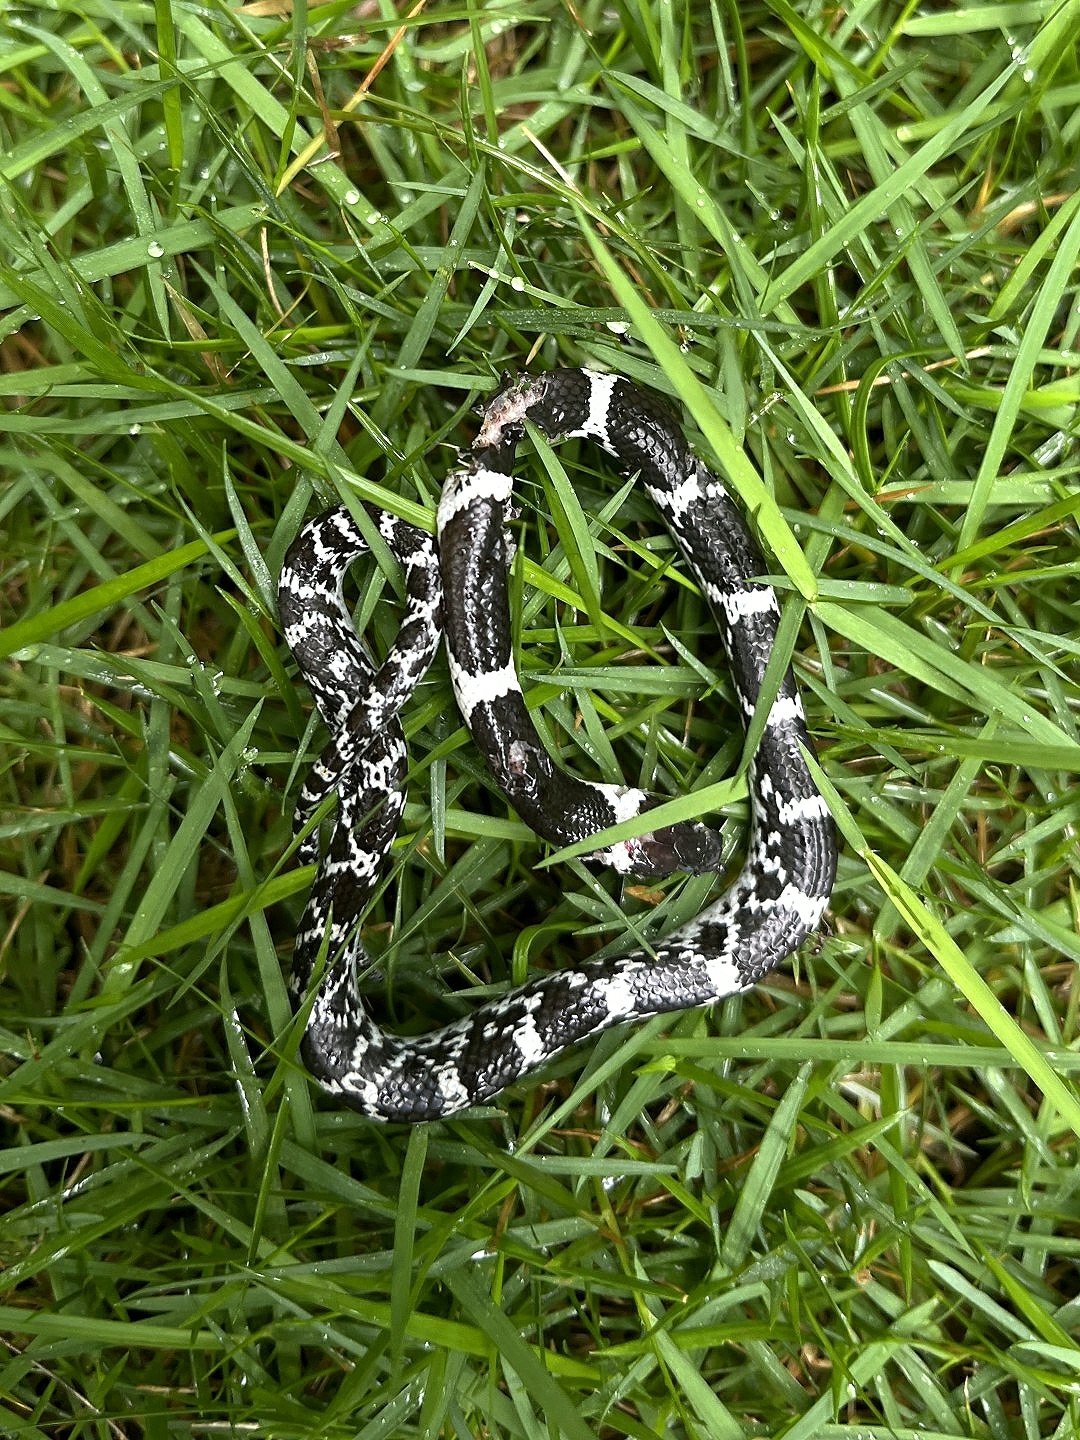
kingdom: Animalia
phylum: Chordata
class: Squamata
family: Colubridae
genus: Lycodon
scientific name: Lycodon aulicus
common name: Common wolf snake
